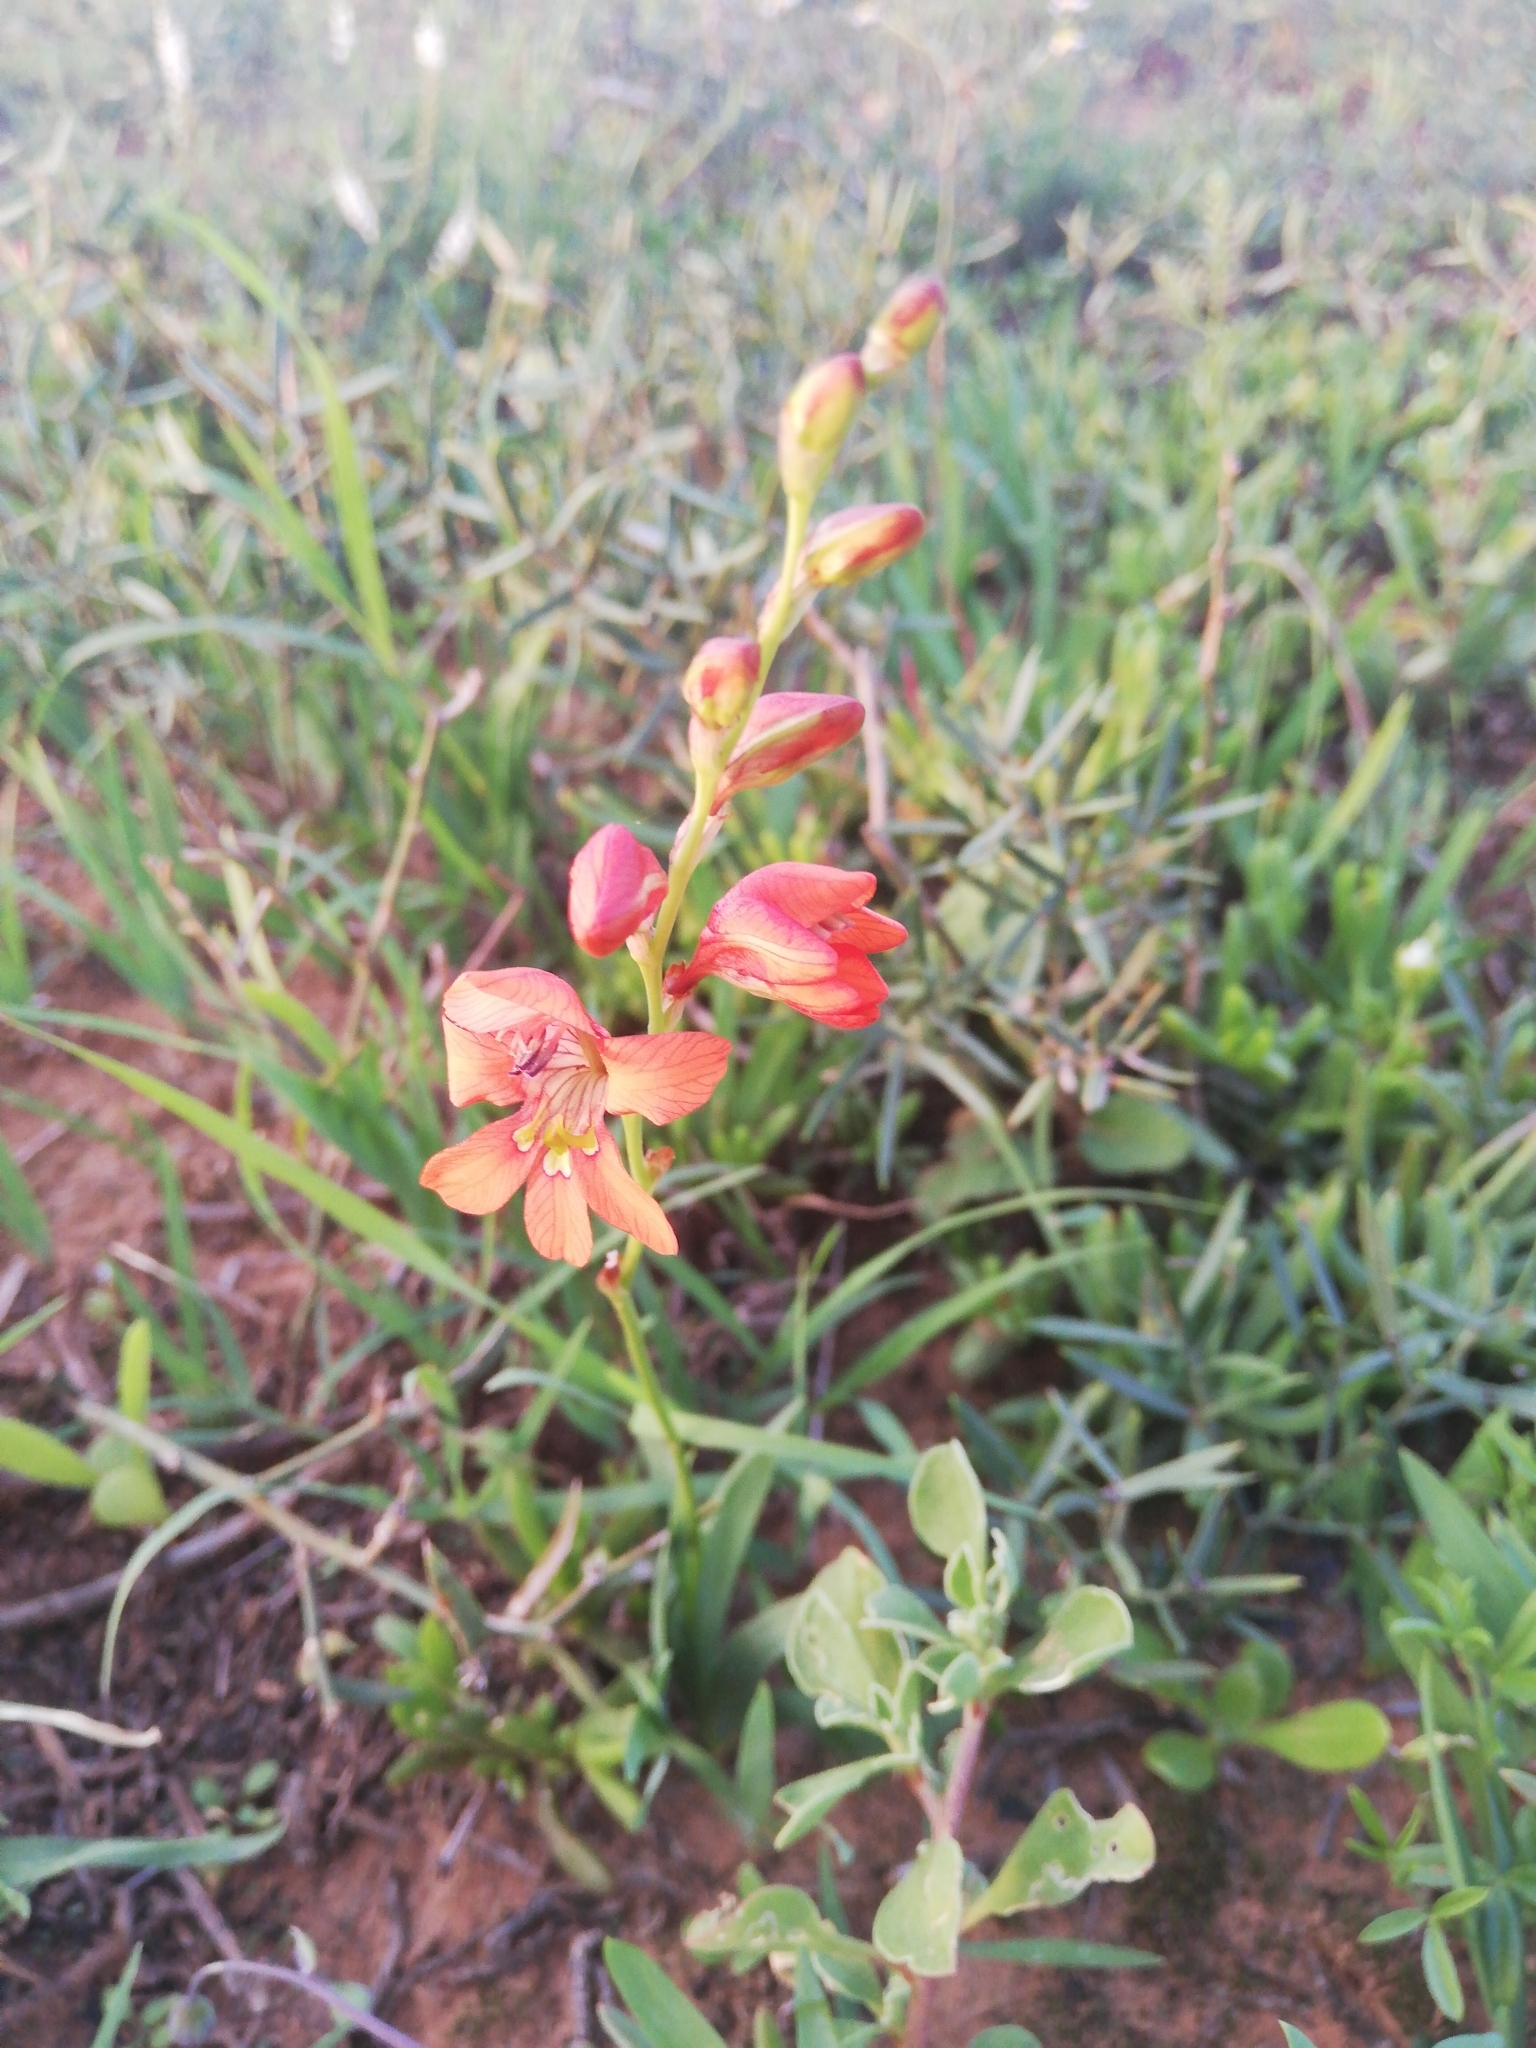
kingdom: Plantae
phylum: Tracheophyta
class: Liliopsida
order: Asparagales
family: Iridaceae
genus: Tritonia
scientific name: Tritonia laxifolia
